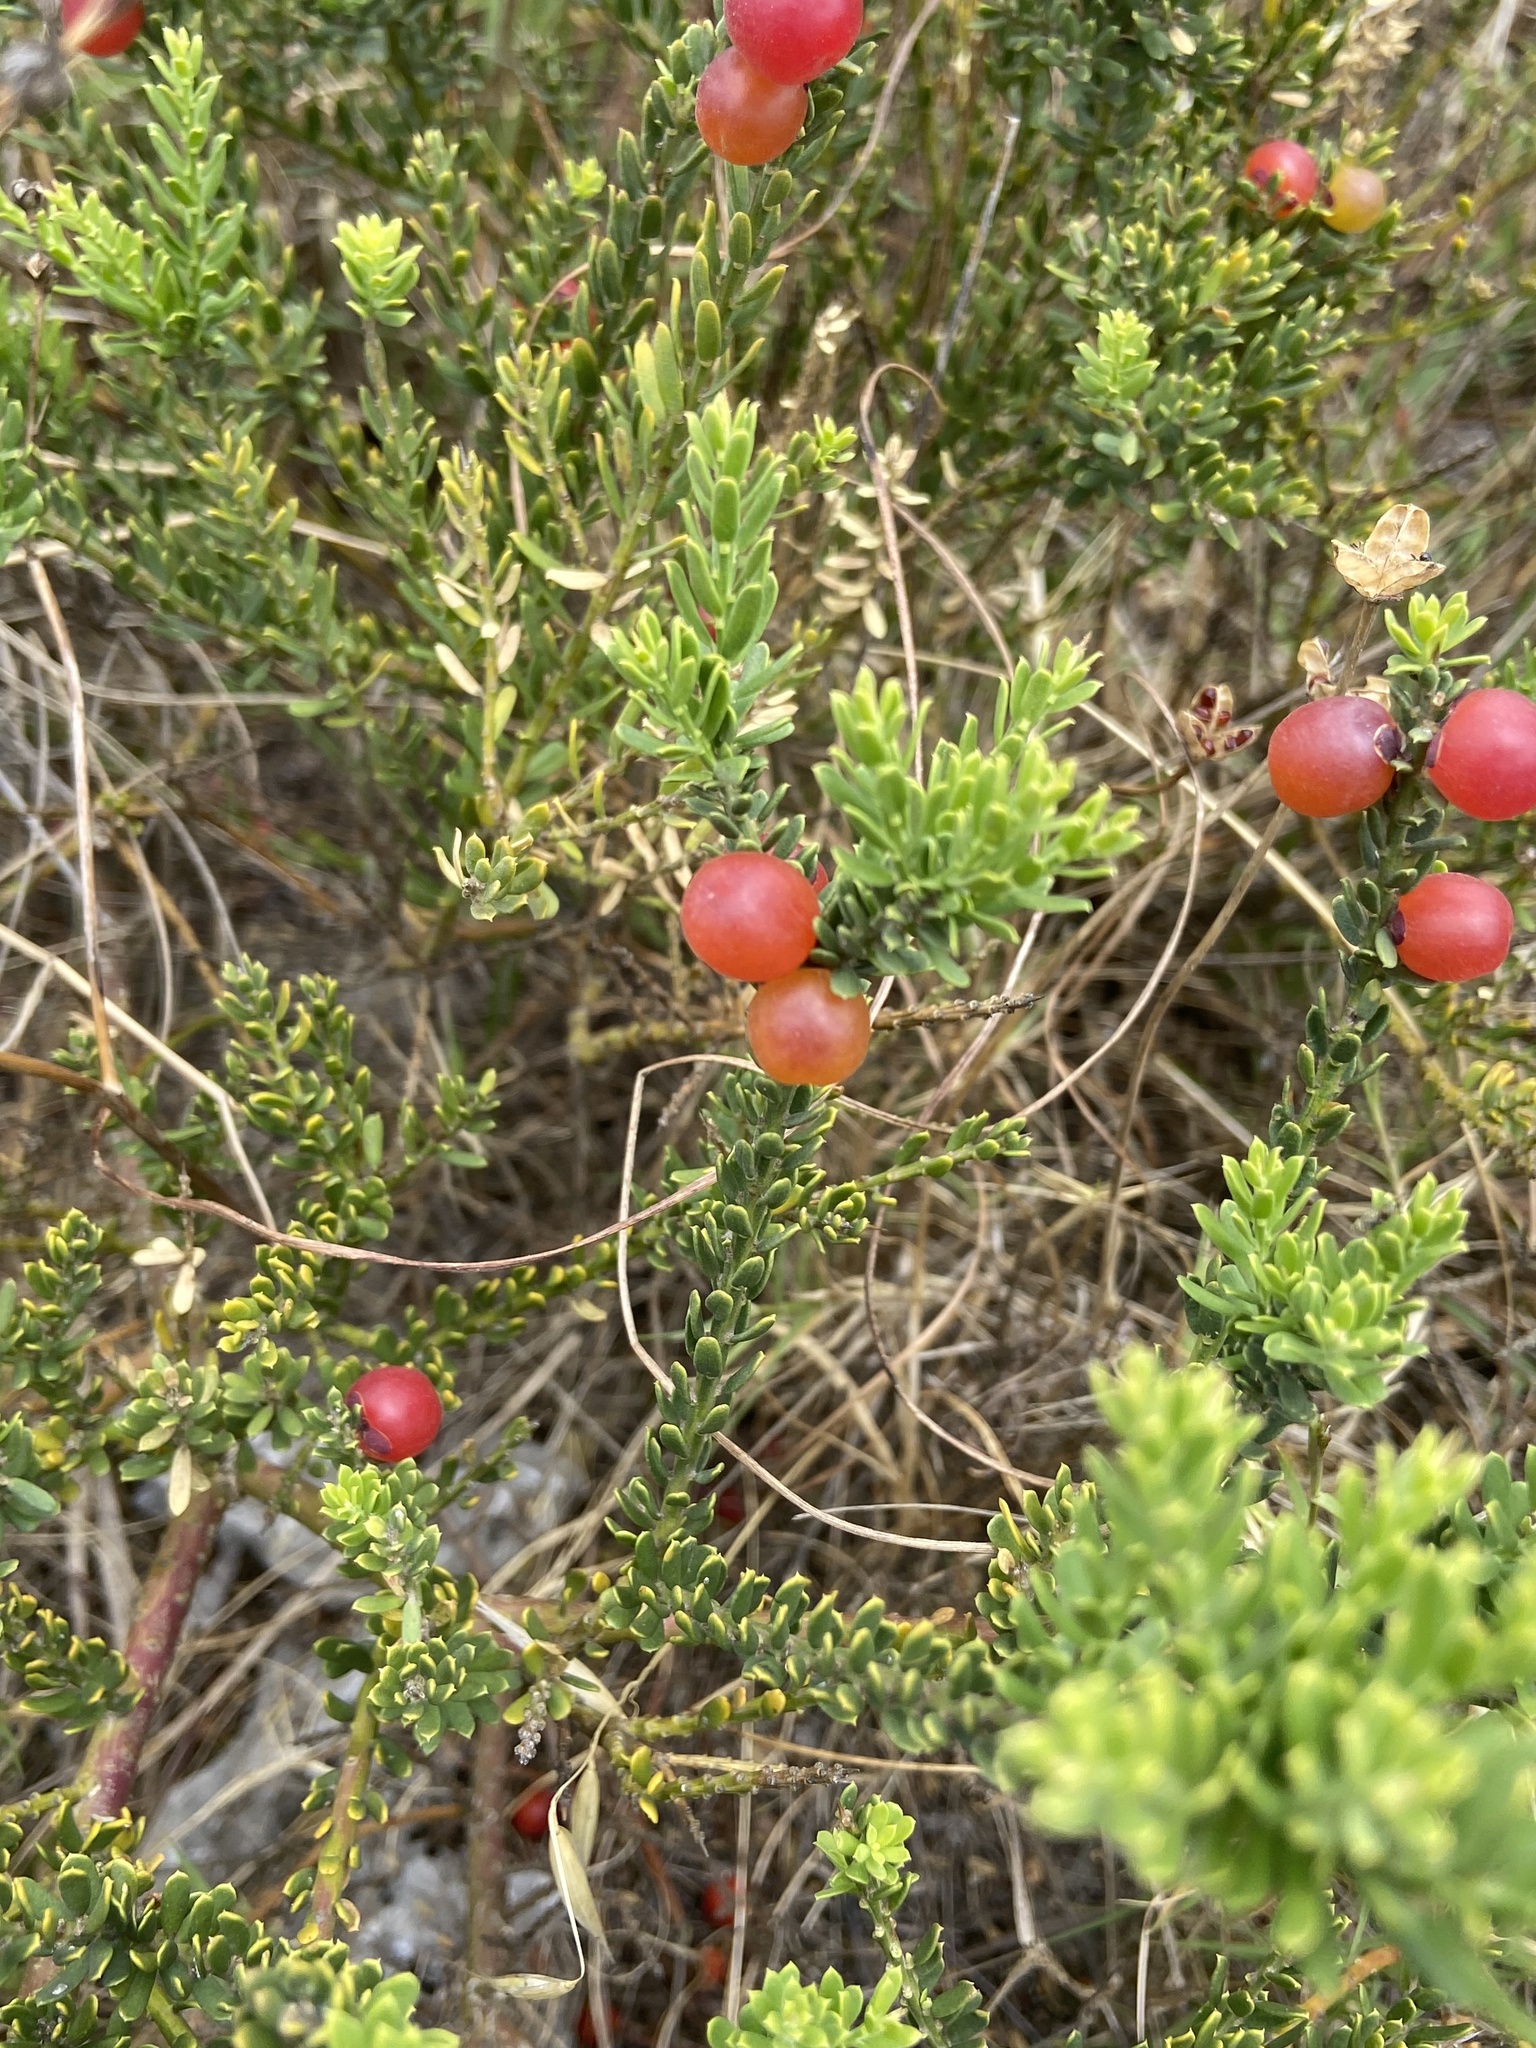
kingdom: Plantae
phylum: Tracheophyta
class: Magnoliopsida
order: Fabales
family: Polygalaceae
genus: Muraltia
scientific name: Muraltia spinosa
